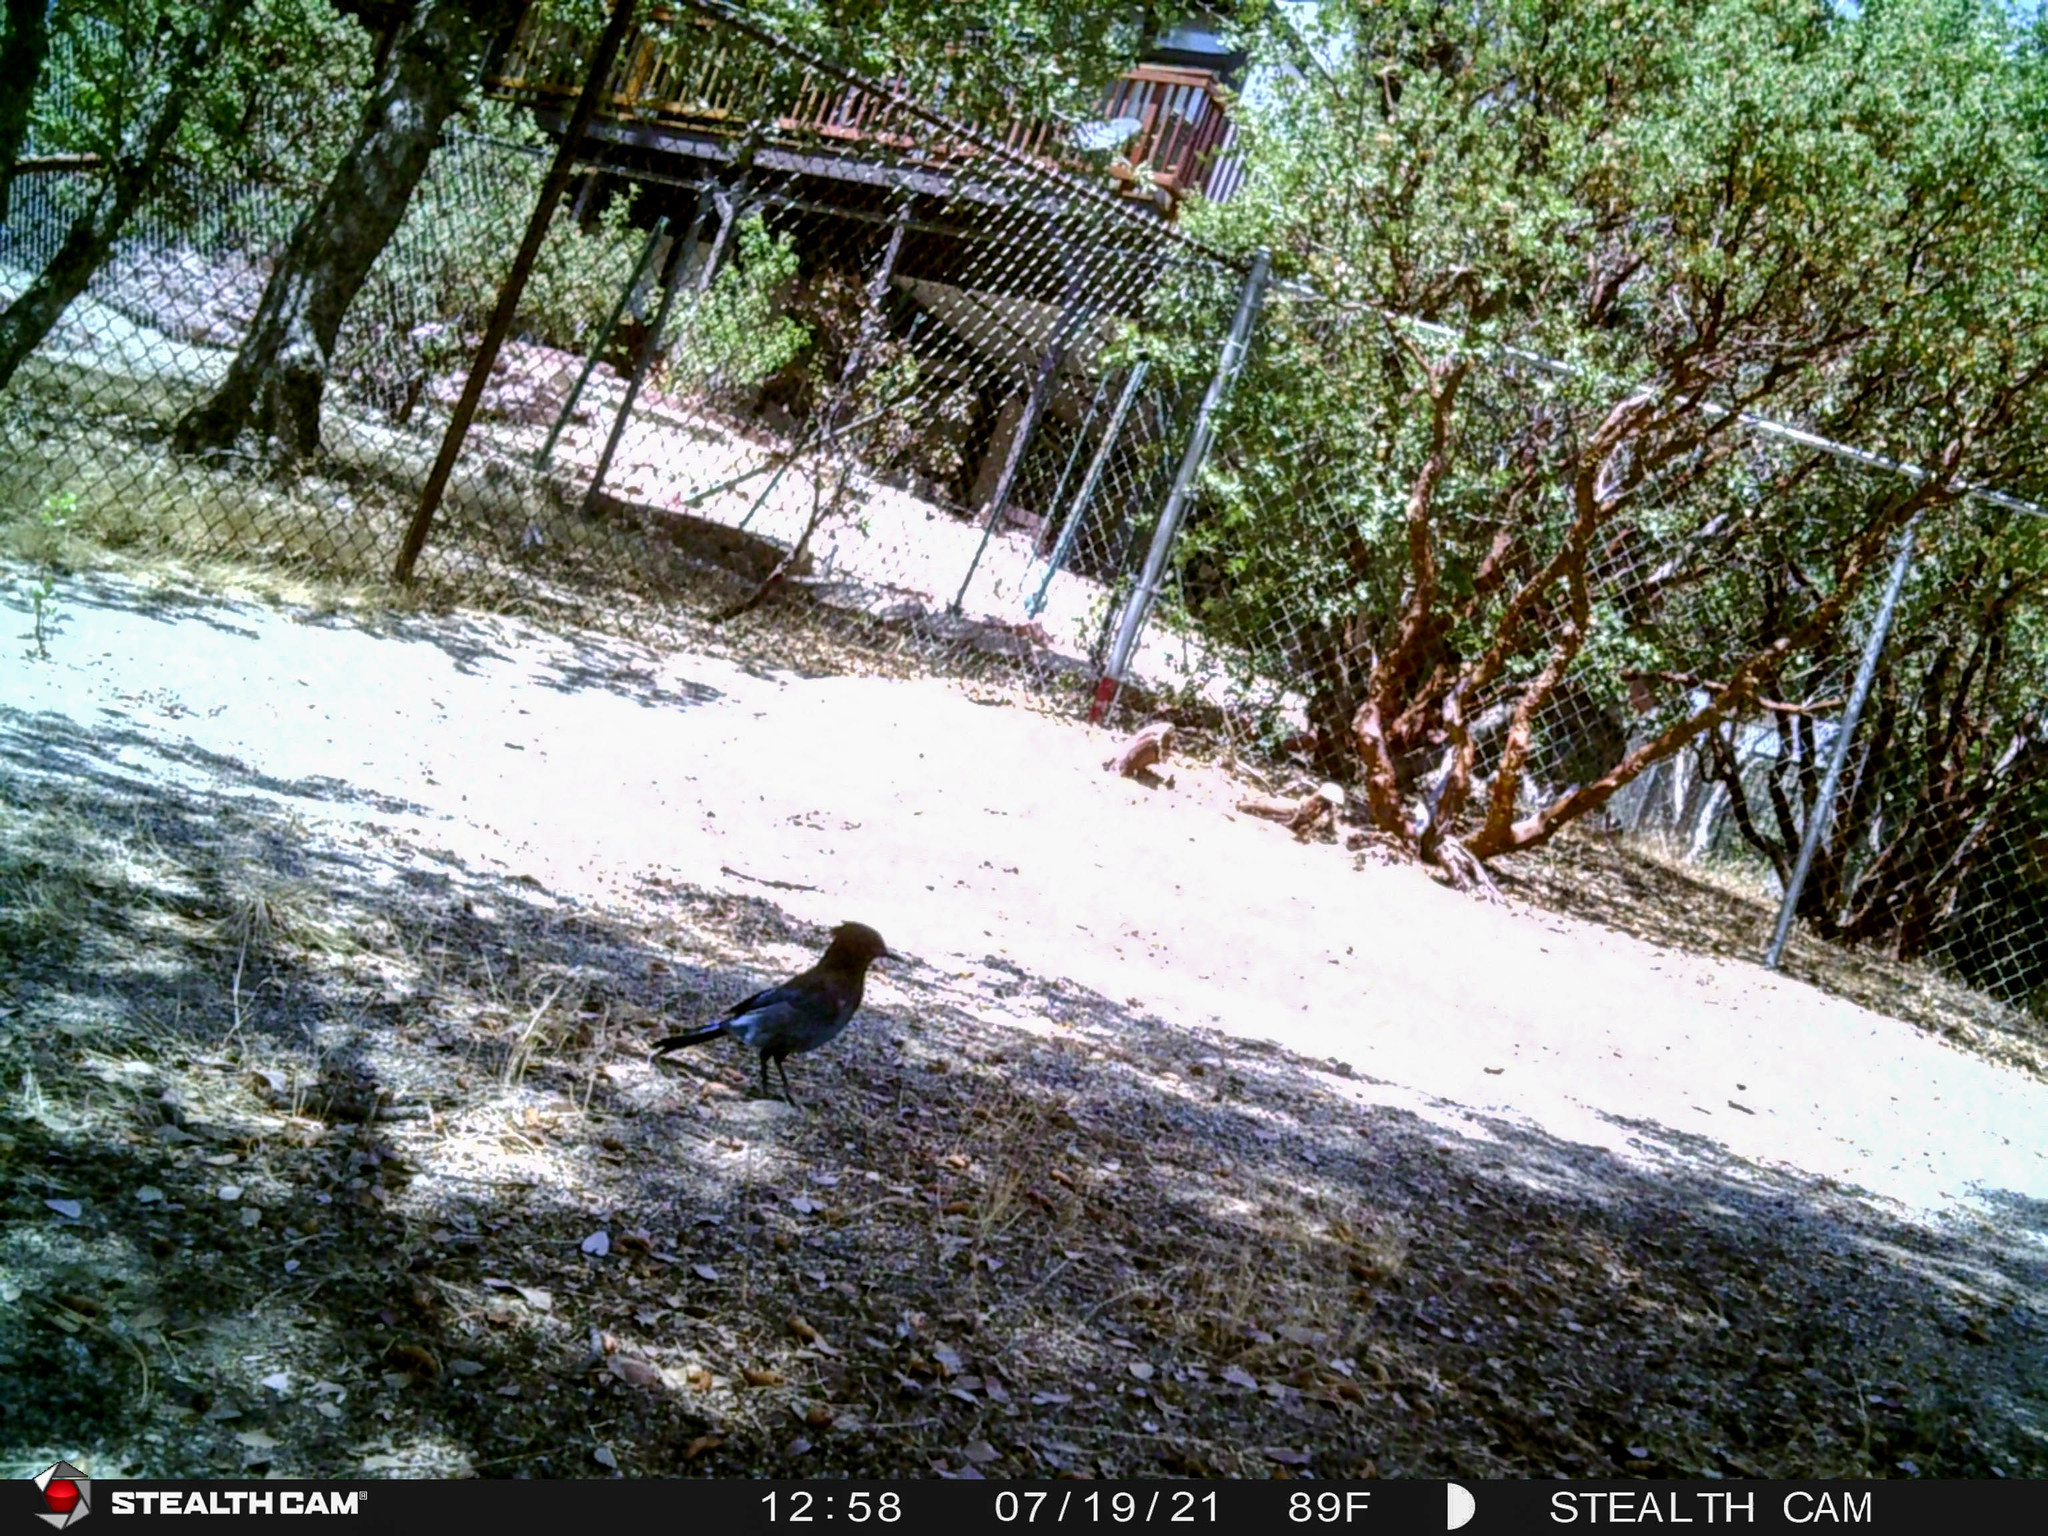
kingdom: Animalia
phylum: Chordata
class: Aves
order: Passeriformes
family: Corvidae
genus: Cyanocitta
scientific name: Cyanocitta stelleri
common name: Steller's jay
